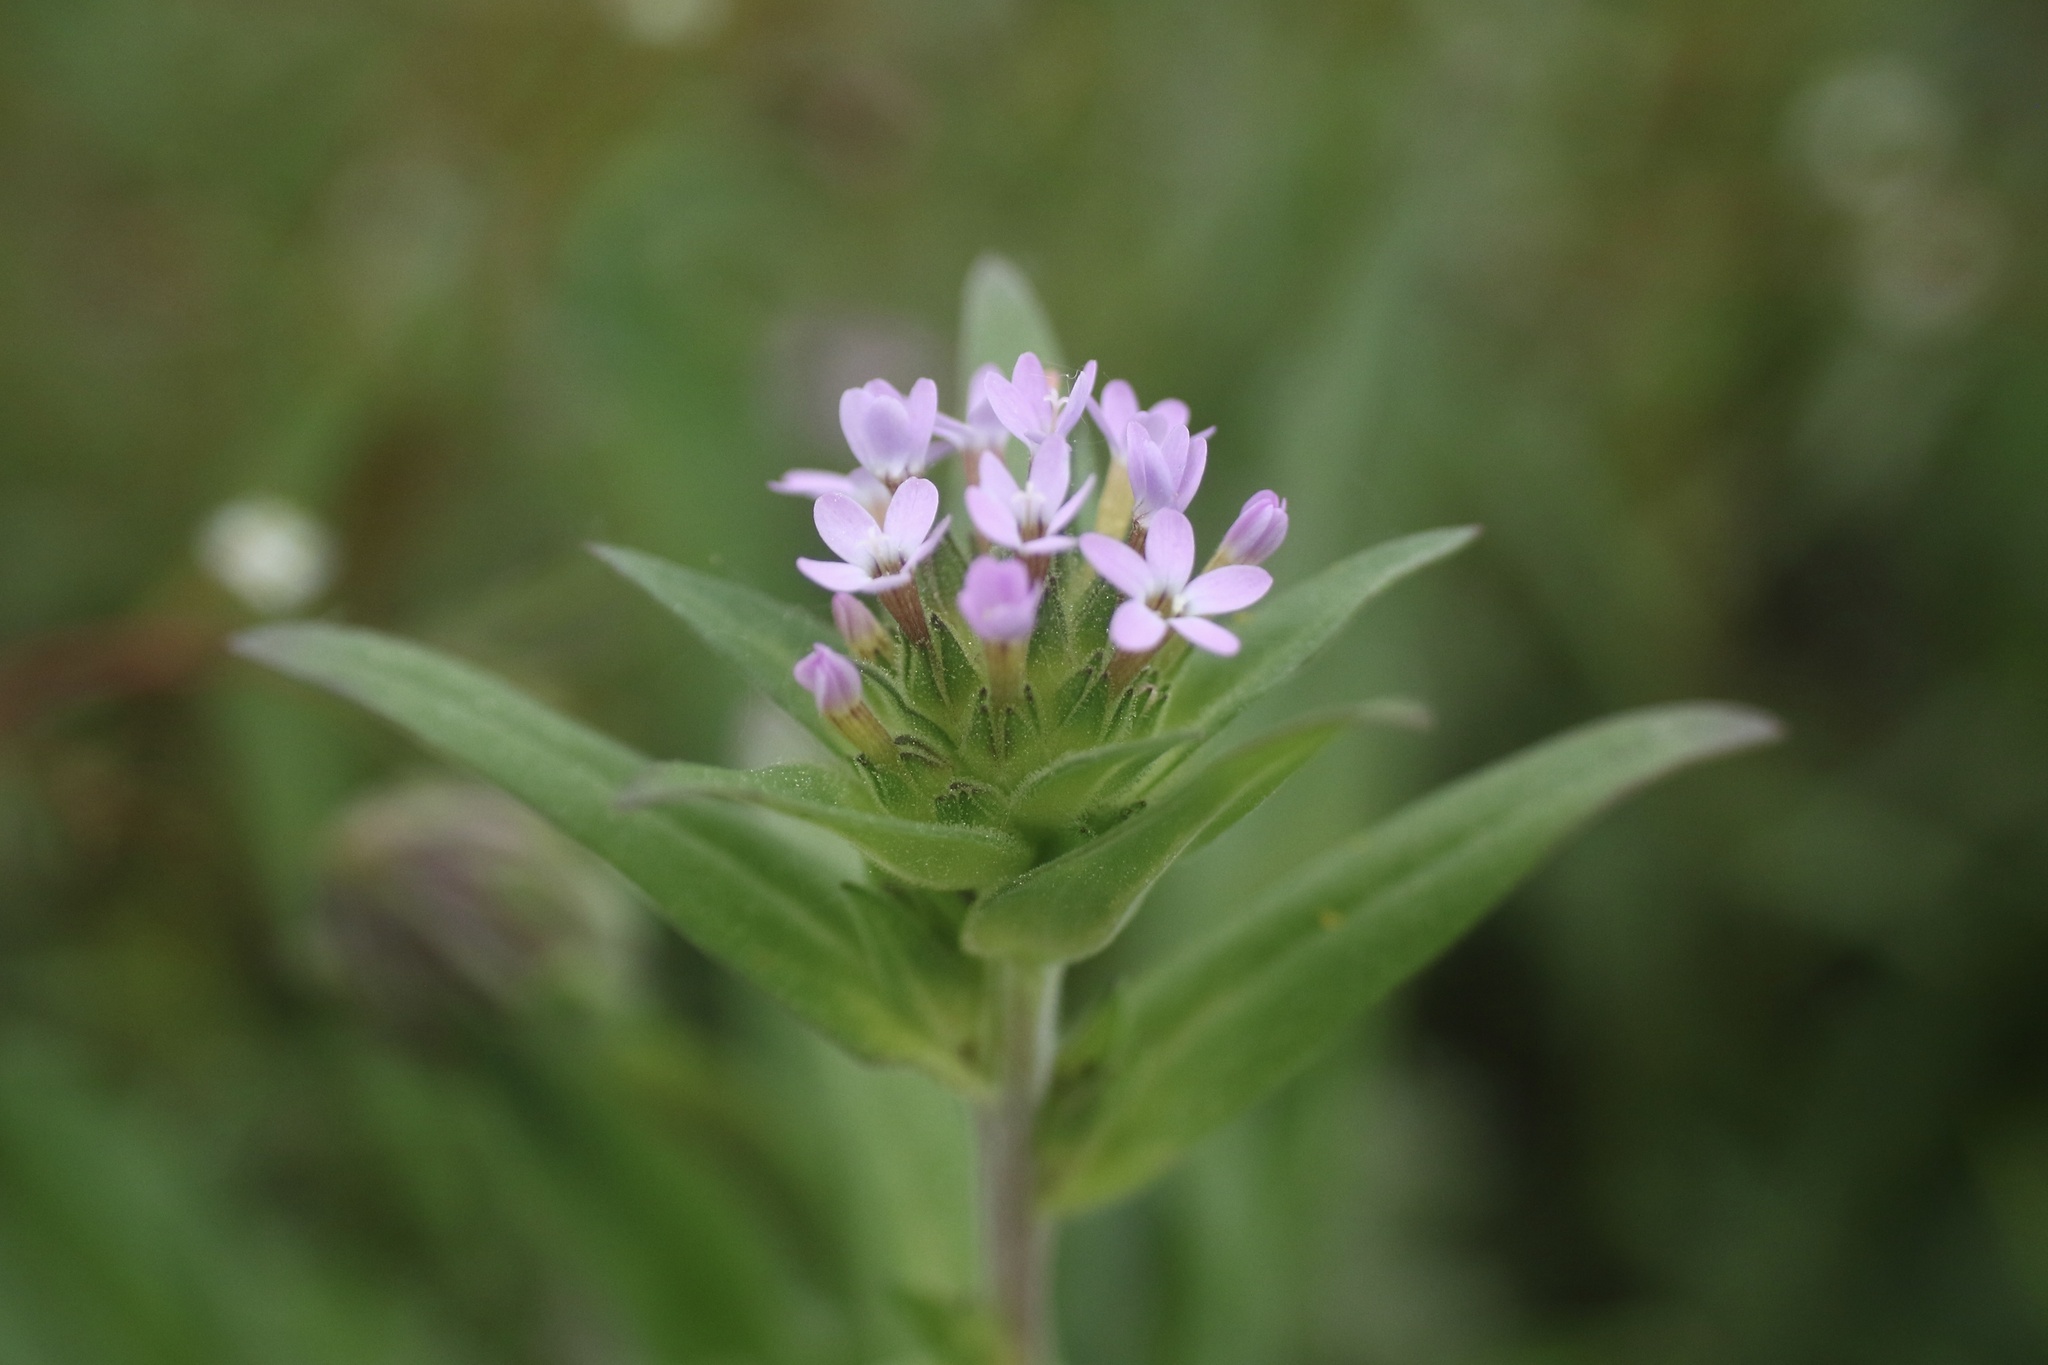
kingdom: Plantae
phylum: Tracheophyta
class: Magnoliopsida
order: Ericales
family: Polemoniaceae
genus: Collomia
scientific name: Collomia tinctoria
